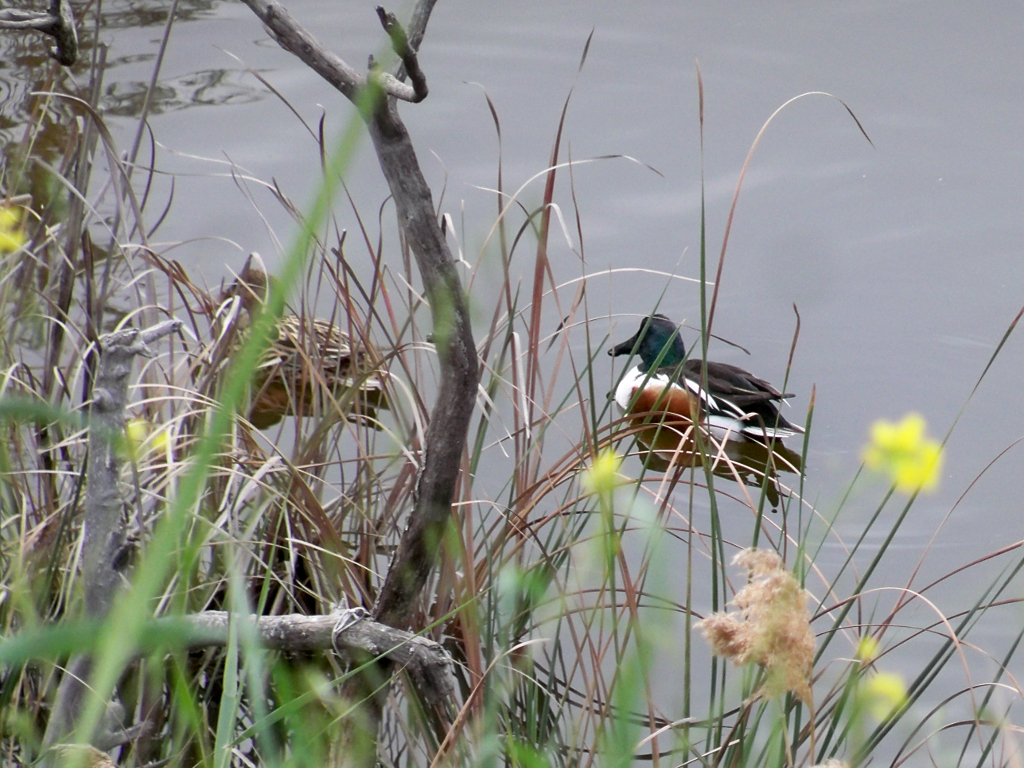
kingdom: Animalia
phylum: Chordata
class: Aves
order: Anseriformes
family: Anatidae
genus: Spatula
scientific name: Spatula clypeata
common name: Northern shoveler
